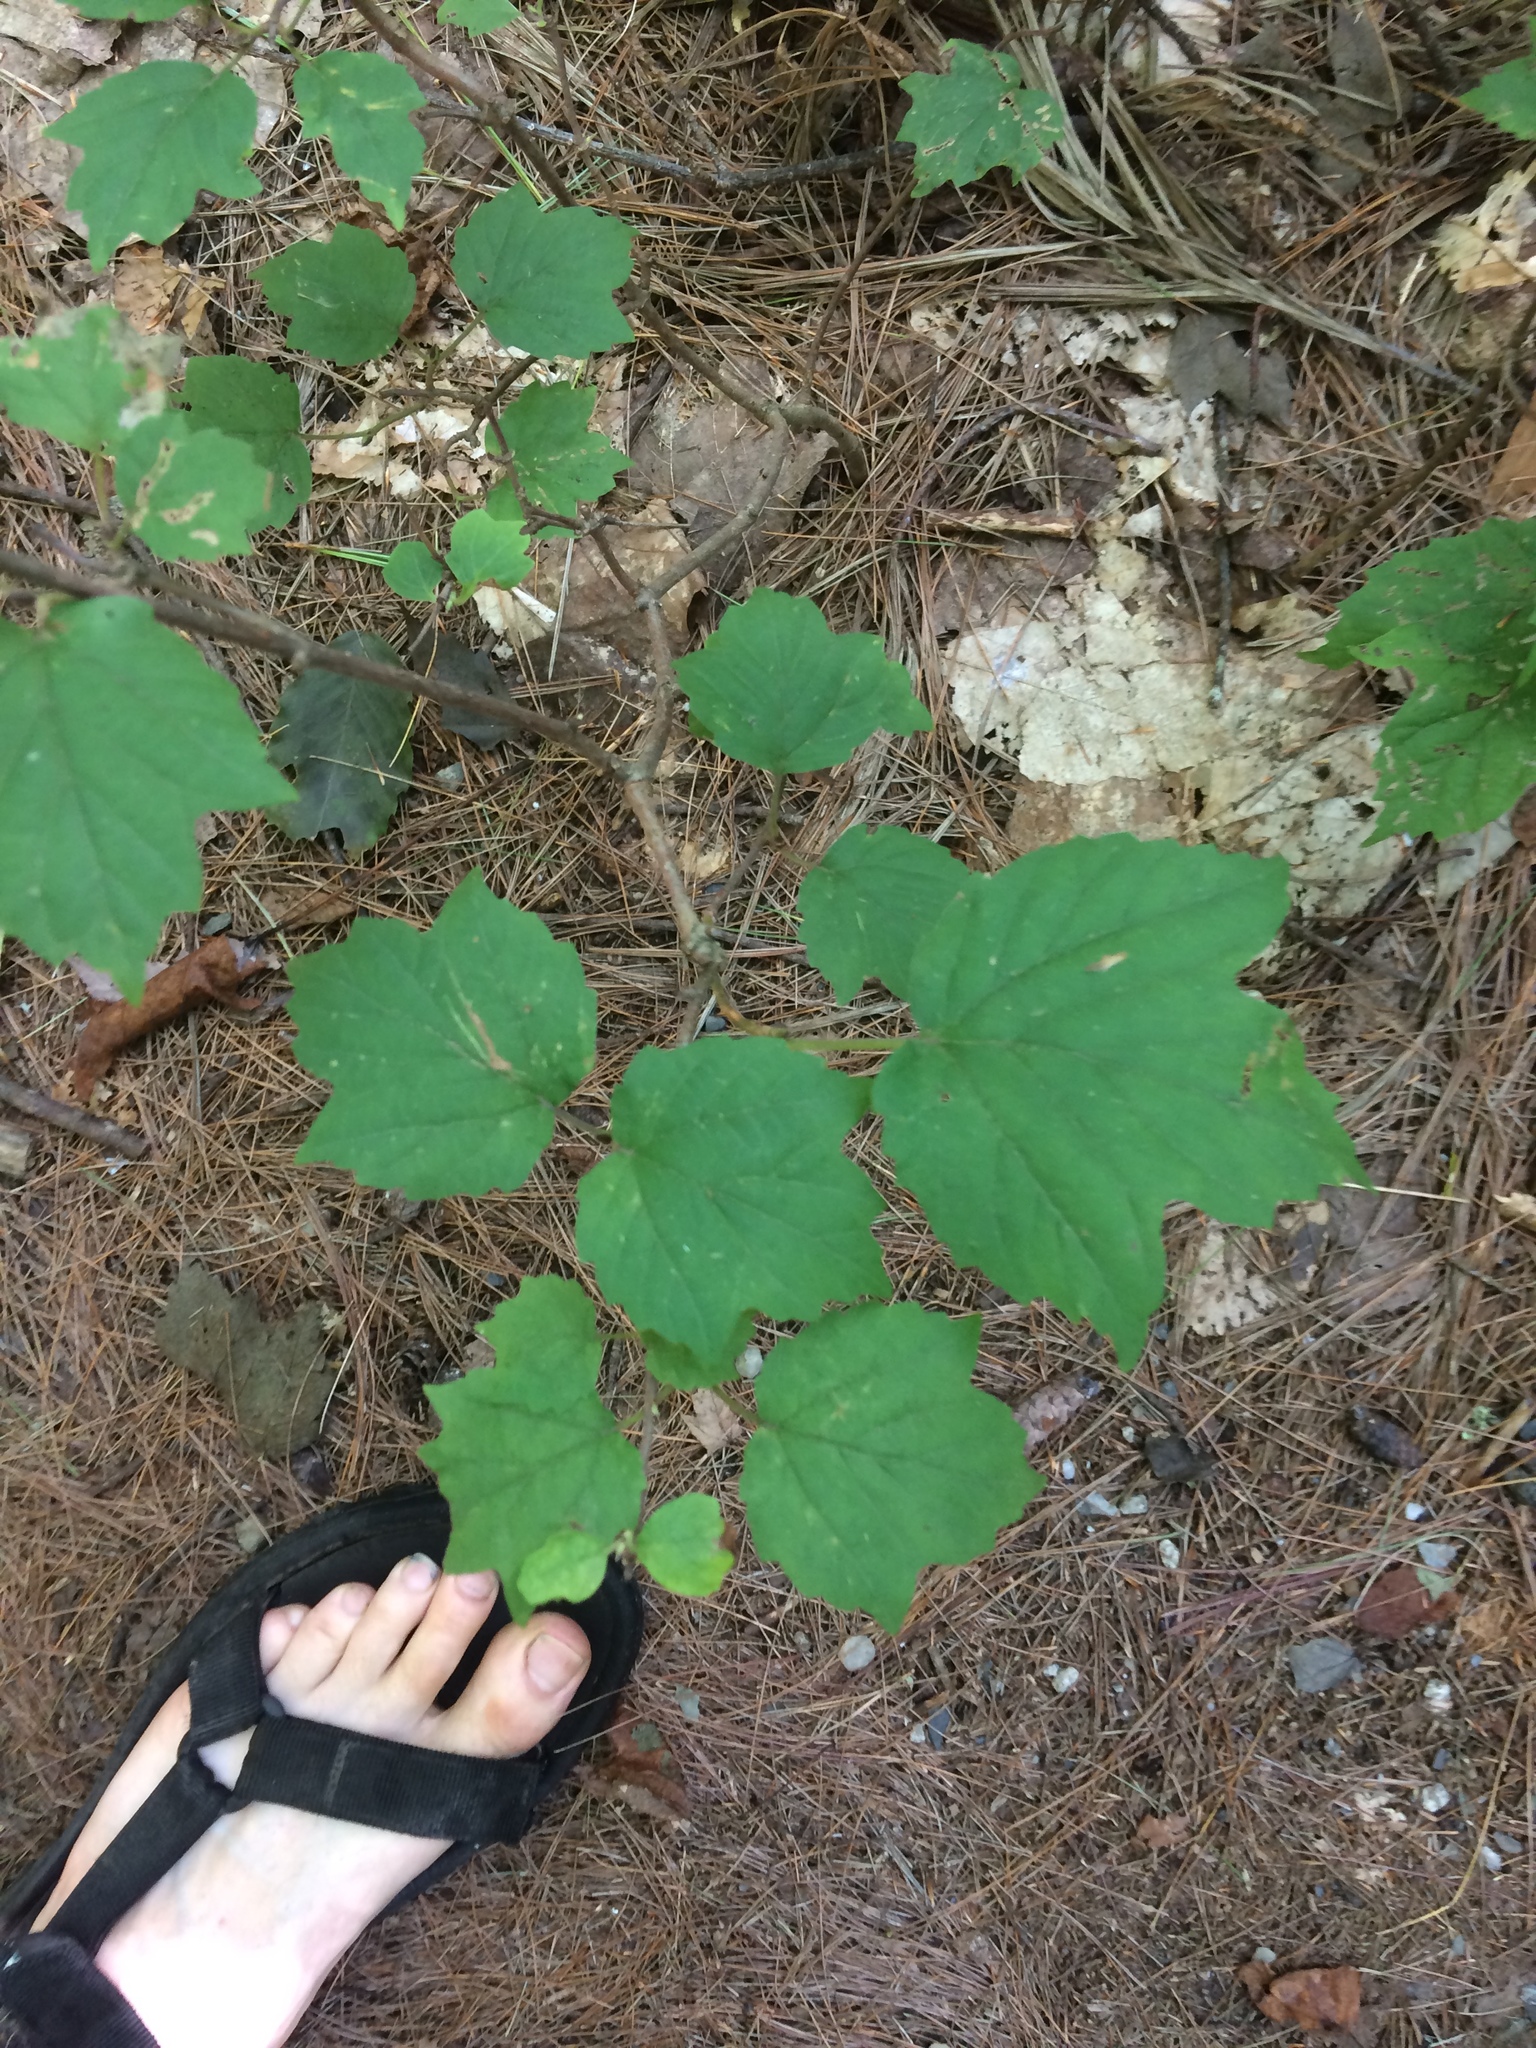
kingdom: Plantae
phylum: Tracheophyta
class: Magnoliopsida
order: Dipsacales
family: Viburnaceae
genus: Viburnum
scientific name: Viburnum acerifolium
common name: Dockmackie
